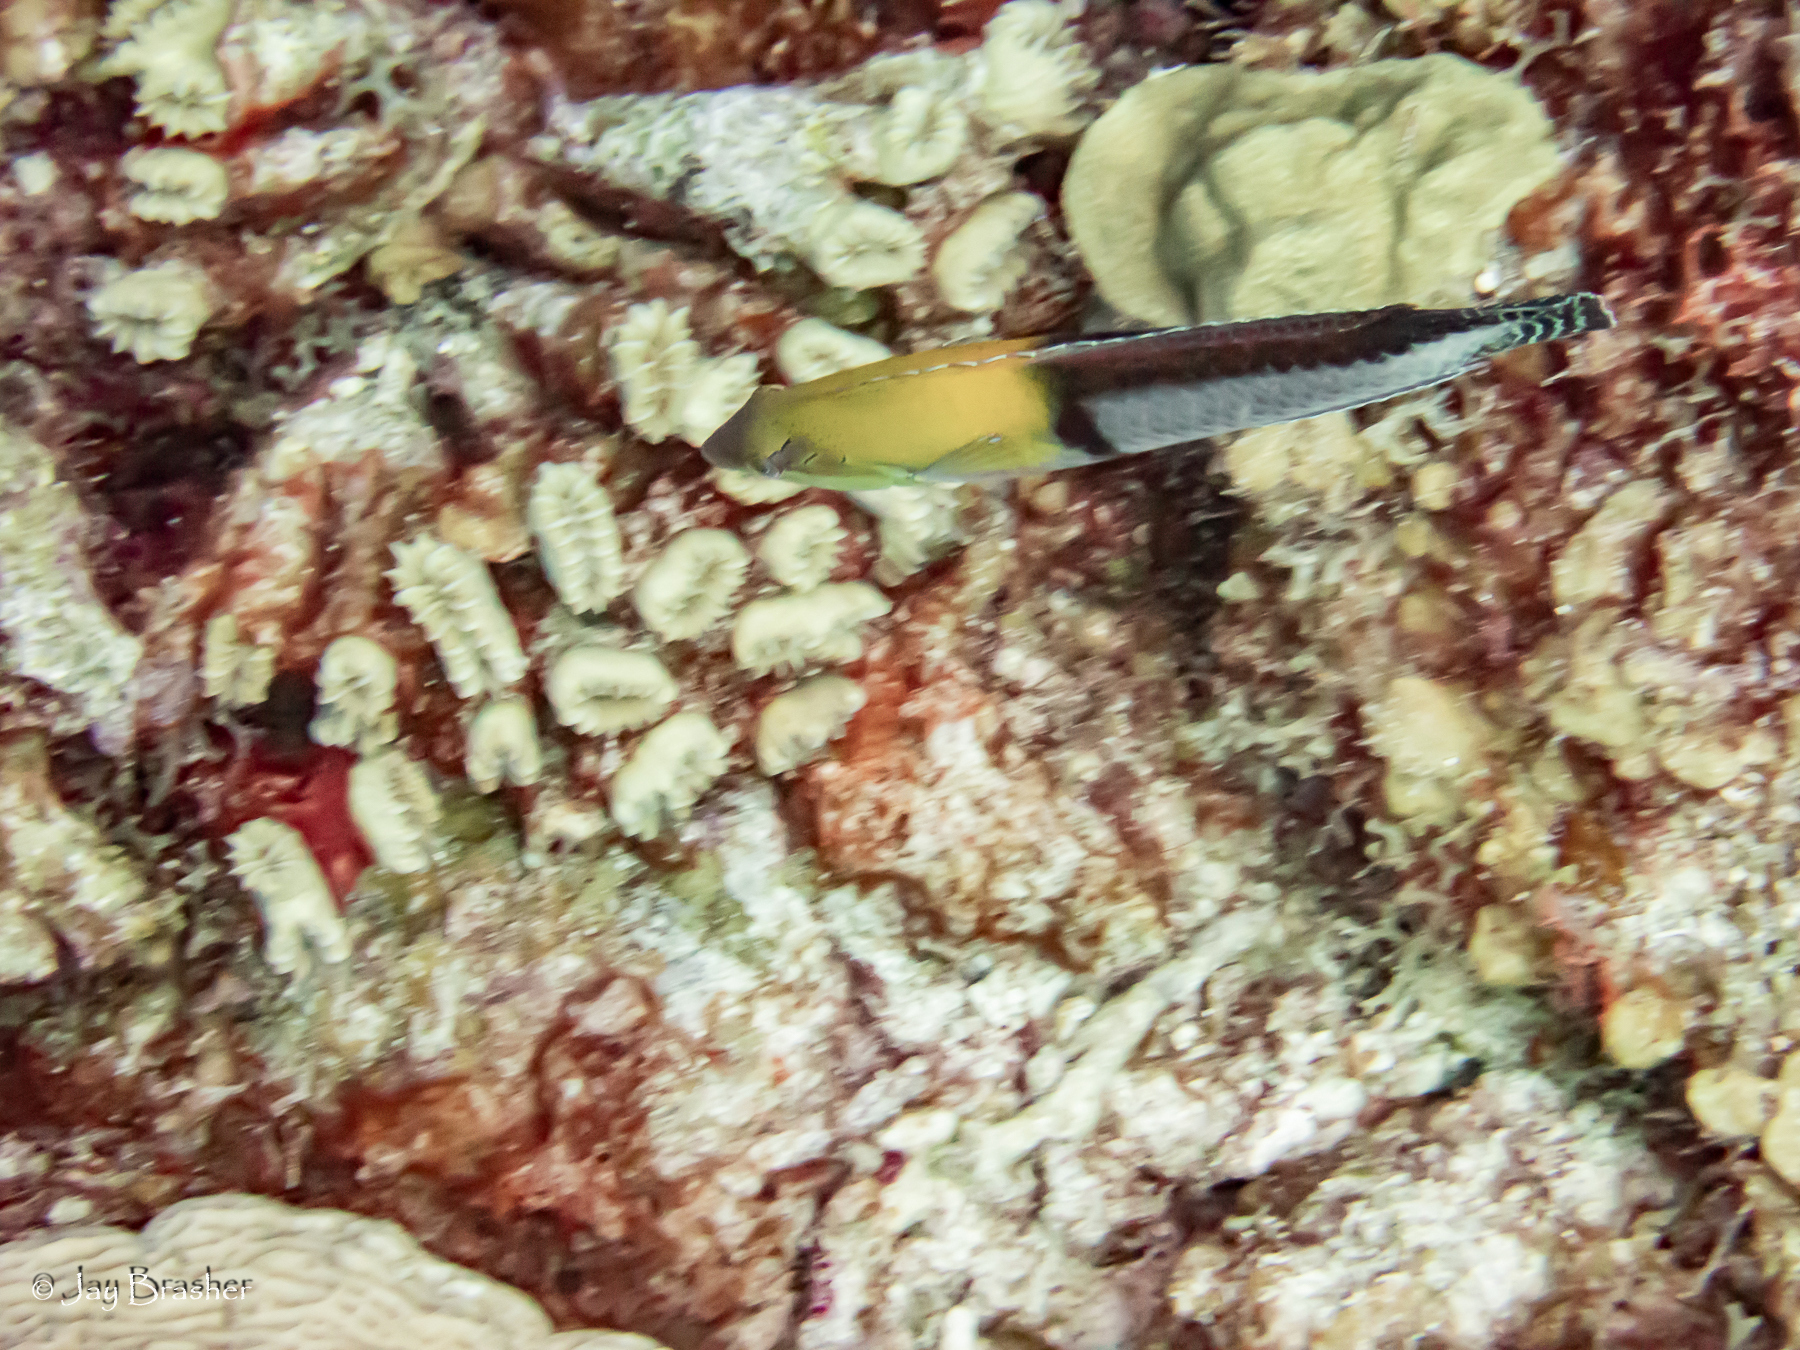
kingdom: Animalia
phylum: Cnidaria
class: Anthozoa
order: Scleractinia
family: Meandrinidae
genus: Eusmilia
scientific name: Eusmilia fastigiata
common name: Smooth flower coral
